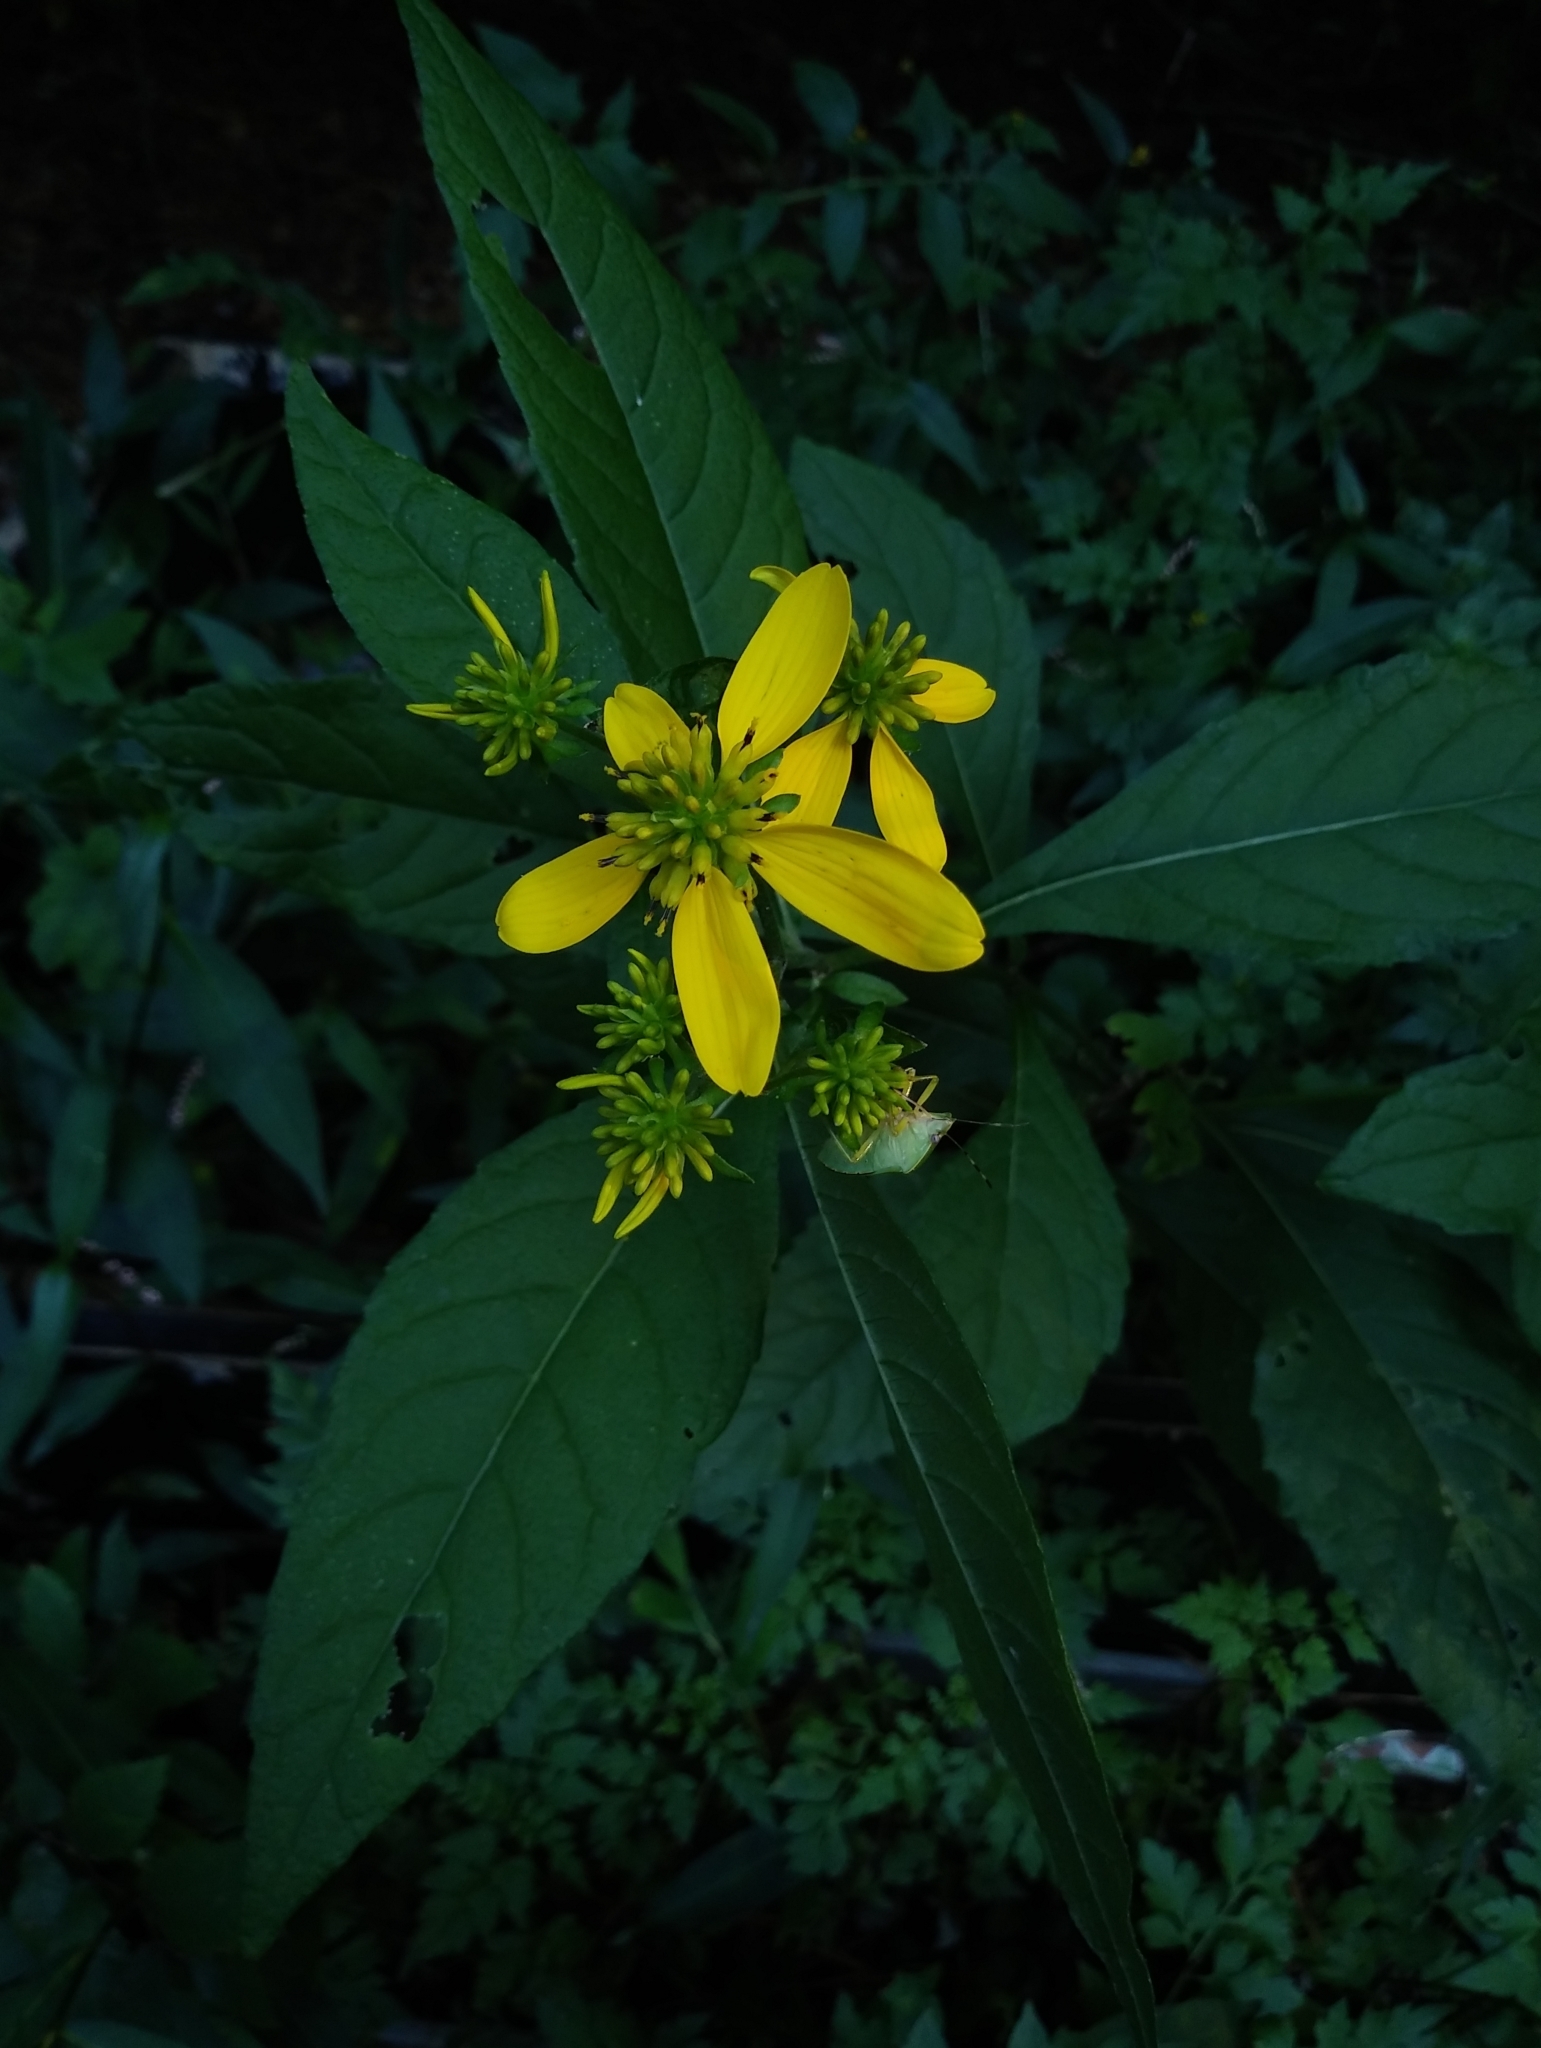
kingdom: Plantae
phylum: Tracheophyta
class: Magnoliopsida
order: Asterales
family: Asteraceae
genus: Verbesina
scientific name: Verbesina alternifolia
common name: Wingstem
